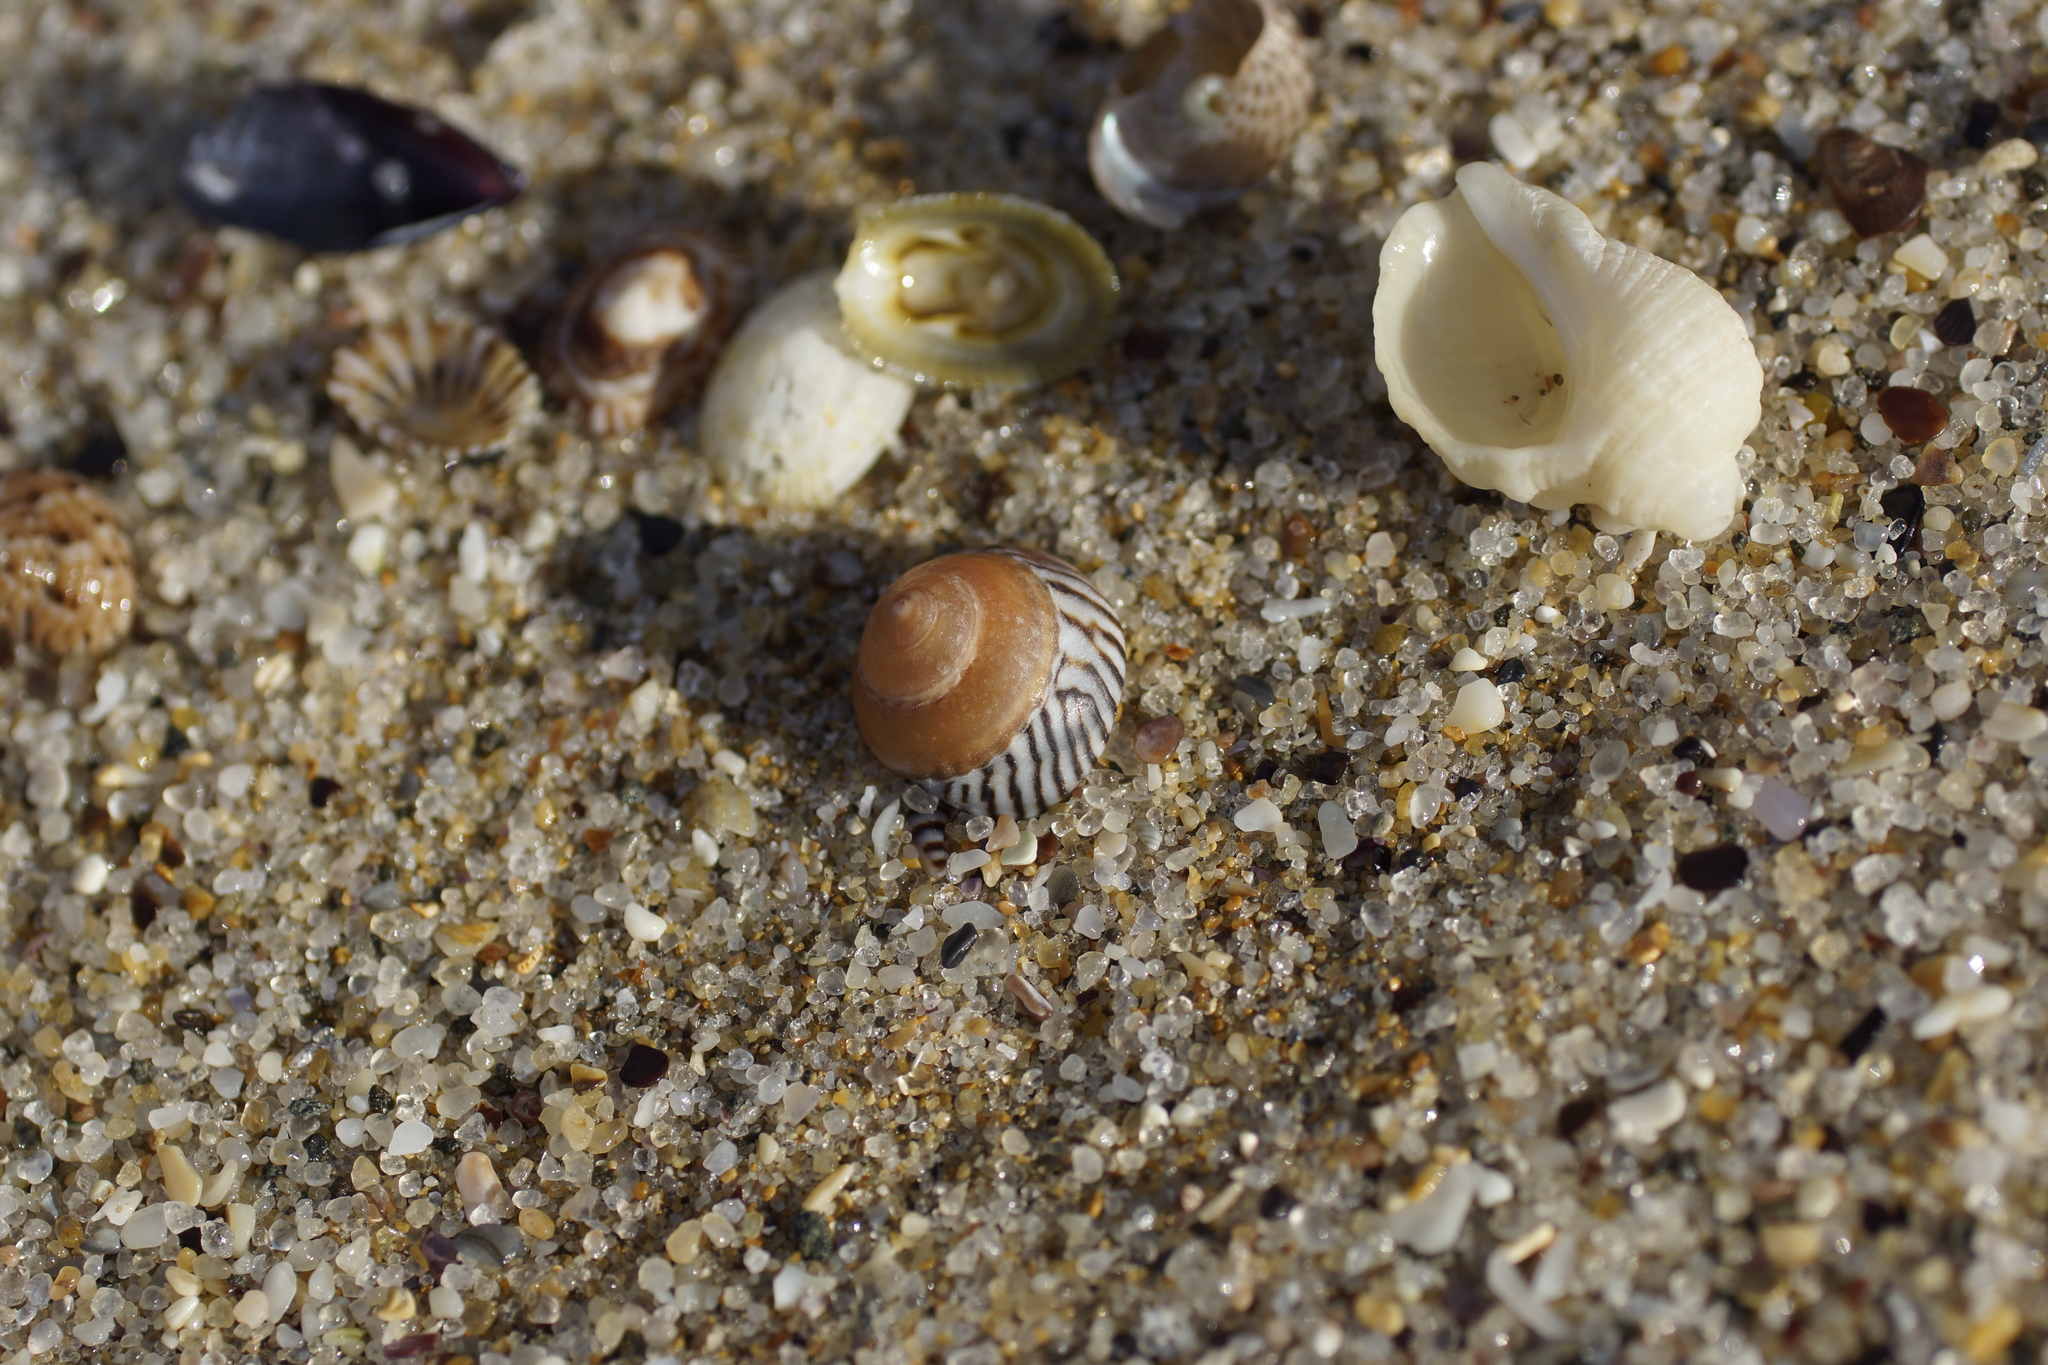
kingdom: Animalia
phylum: Mollusca
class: Gastropoda
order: Littorinimorpha
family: Littorinidae
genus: Bembicium
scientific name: Bembicium nanum
